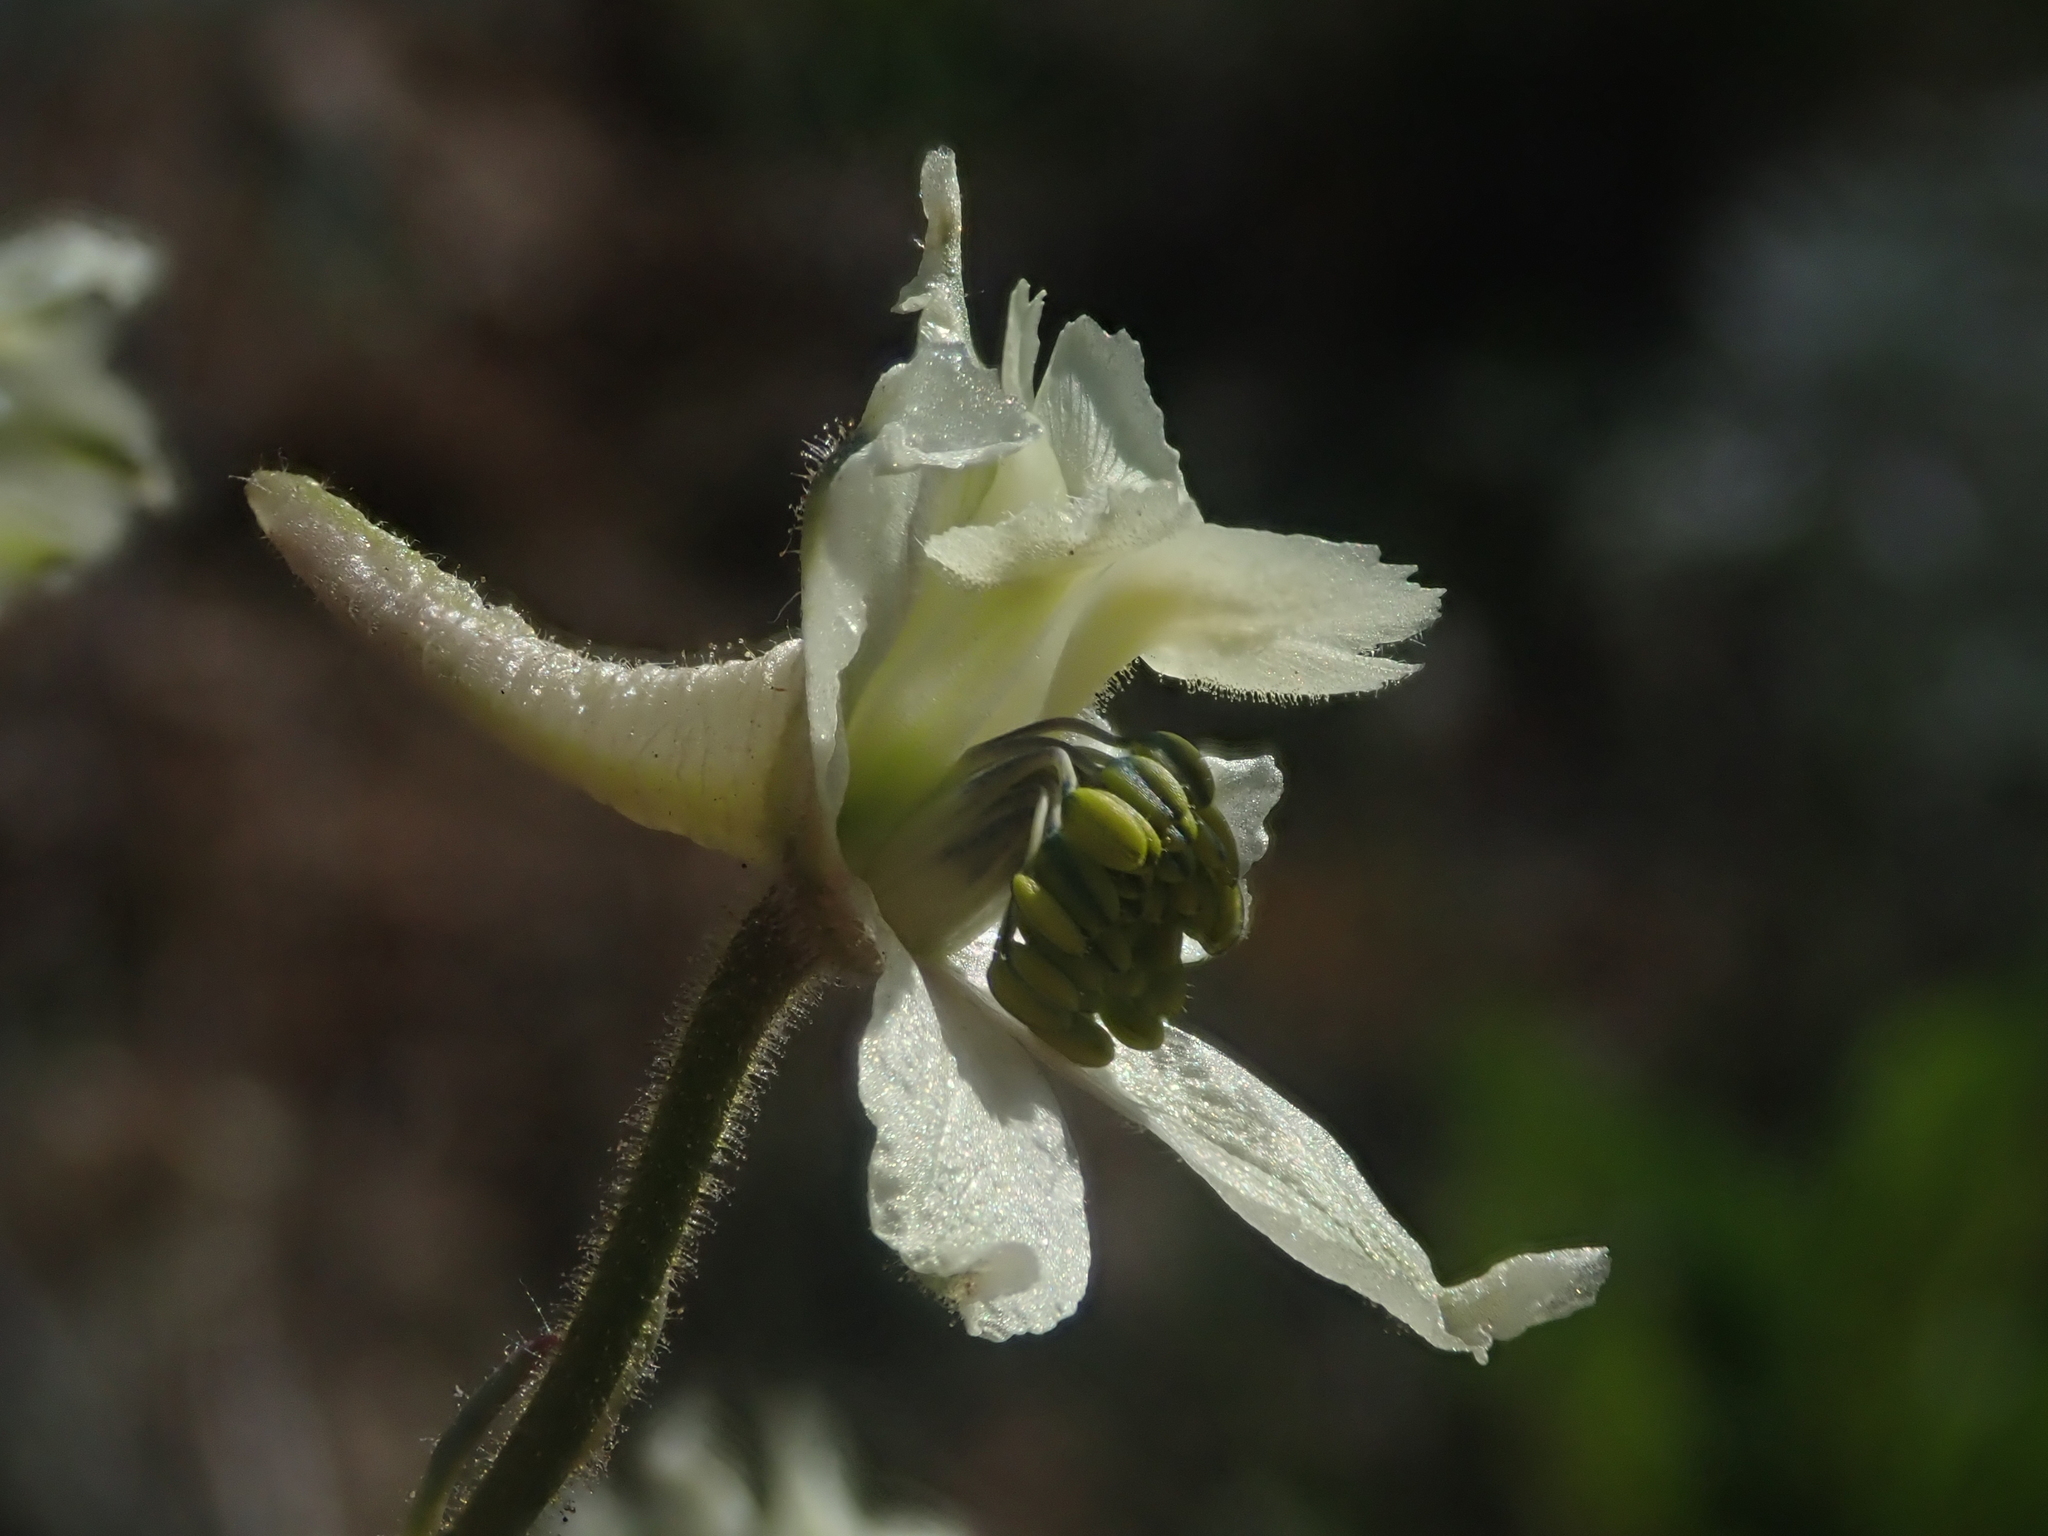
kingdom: Plantae
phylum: Tracheophyta
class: Magnoliopsida
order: Ranunculales
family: Ranunculaceae
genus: Delphinium
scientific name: Delphinium xantholeucum
